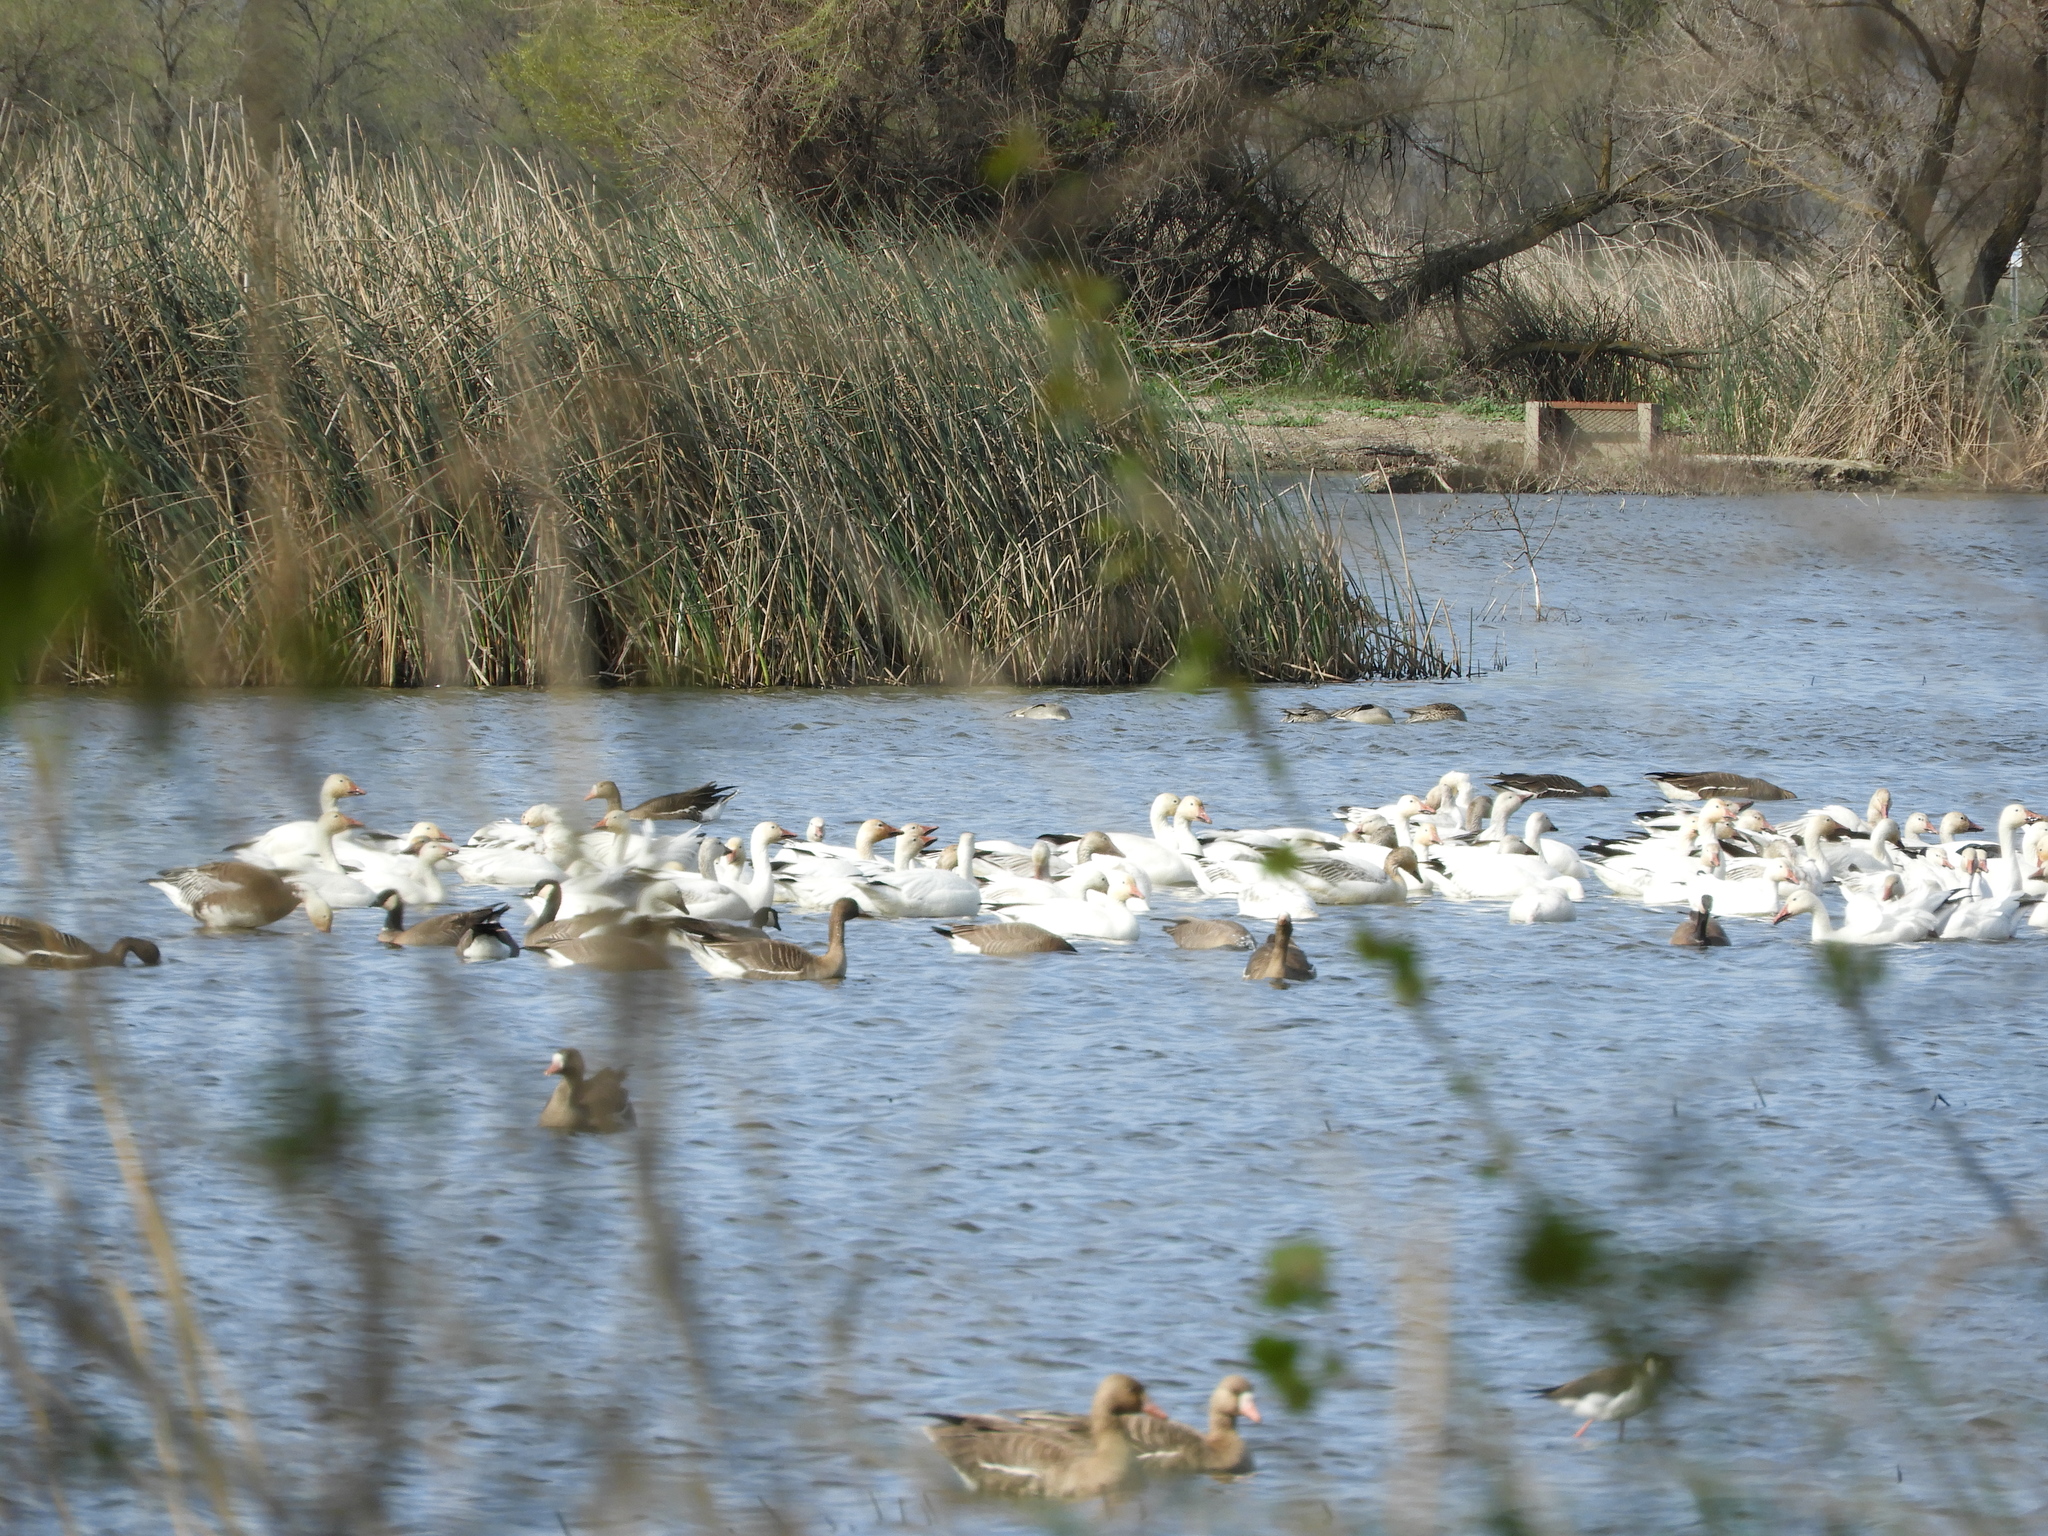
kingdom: Animalia
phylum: Chordata
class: Aves
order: Anseriformes
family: Anatidae
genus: Anser
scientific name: Anser caerulescens
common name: Snow goose
